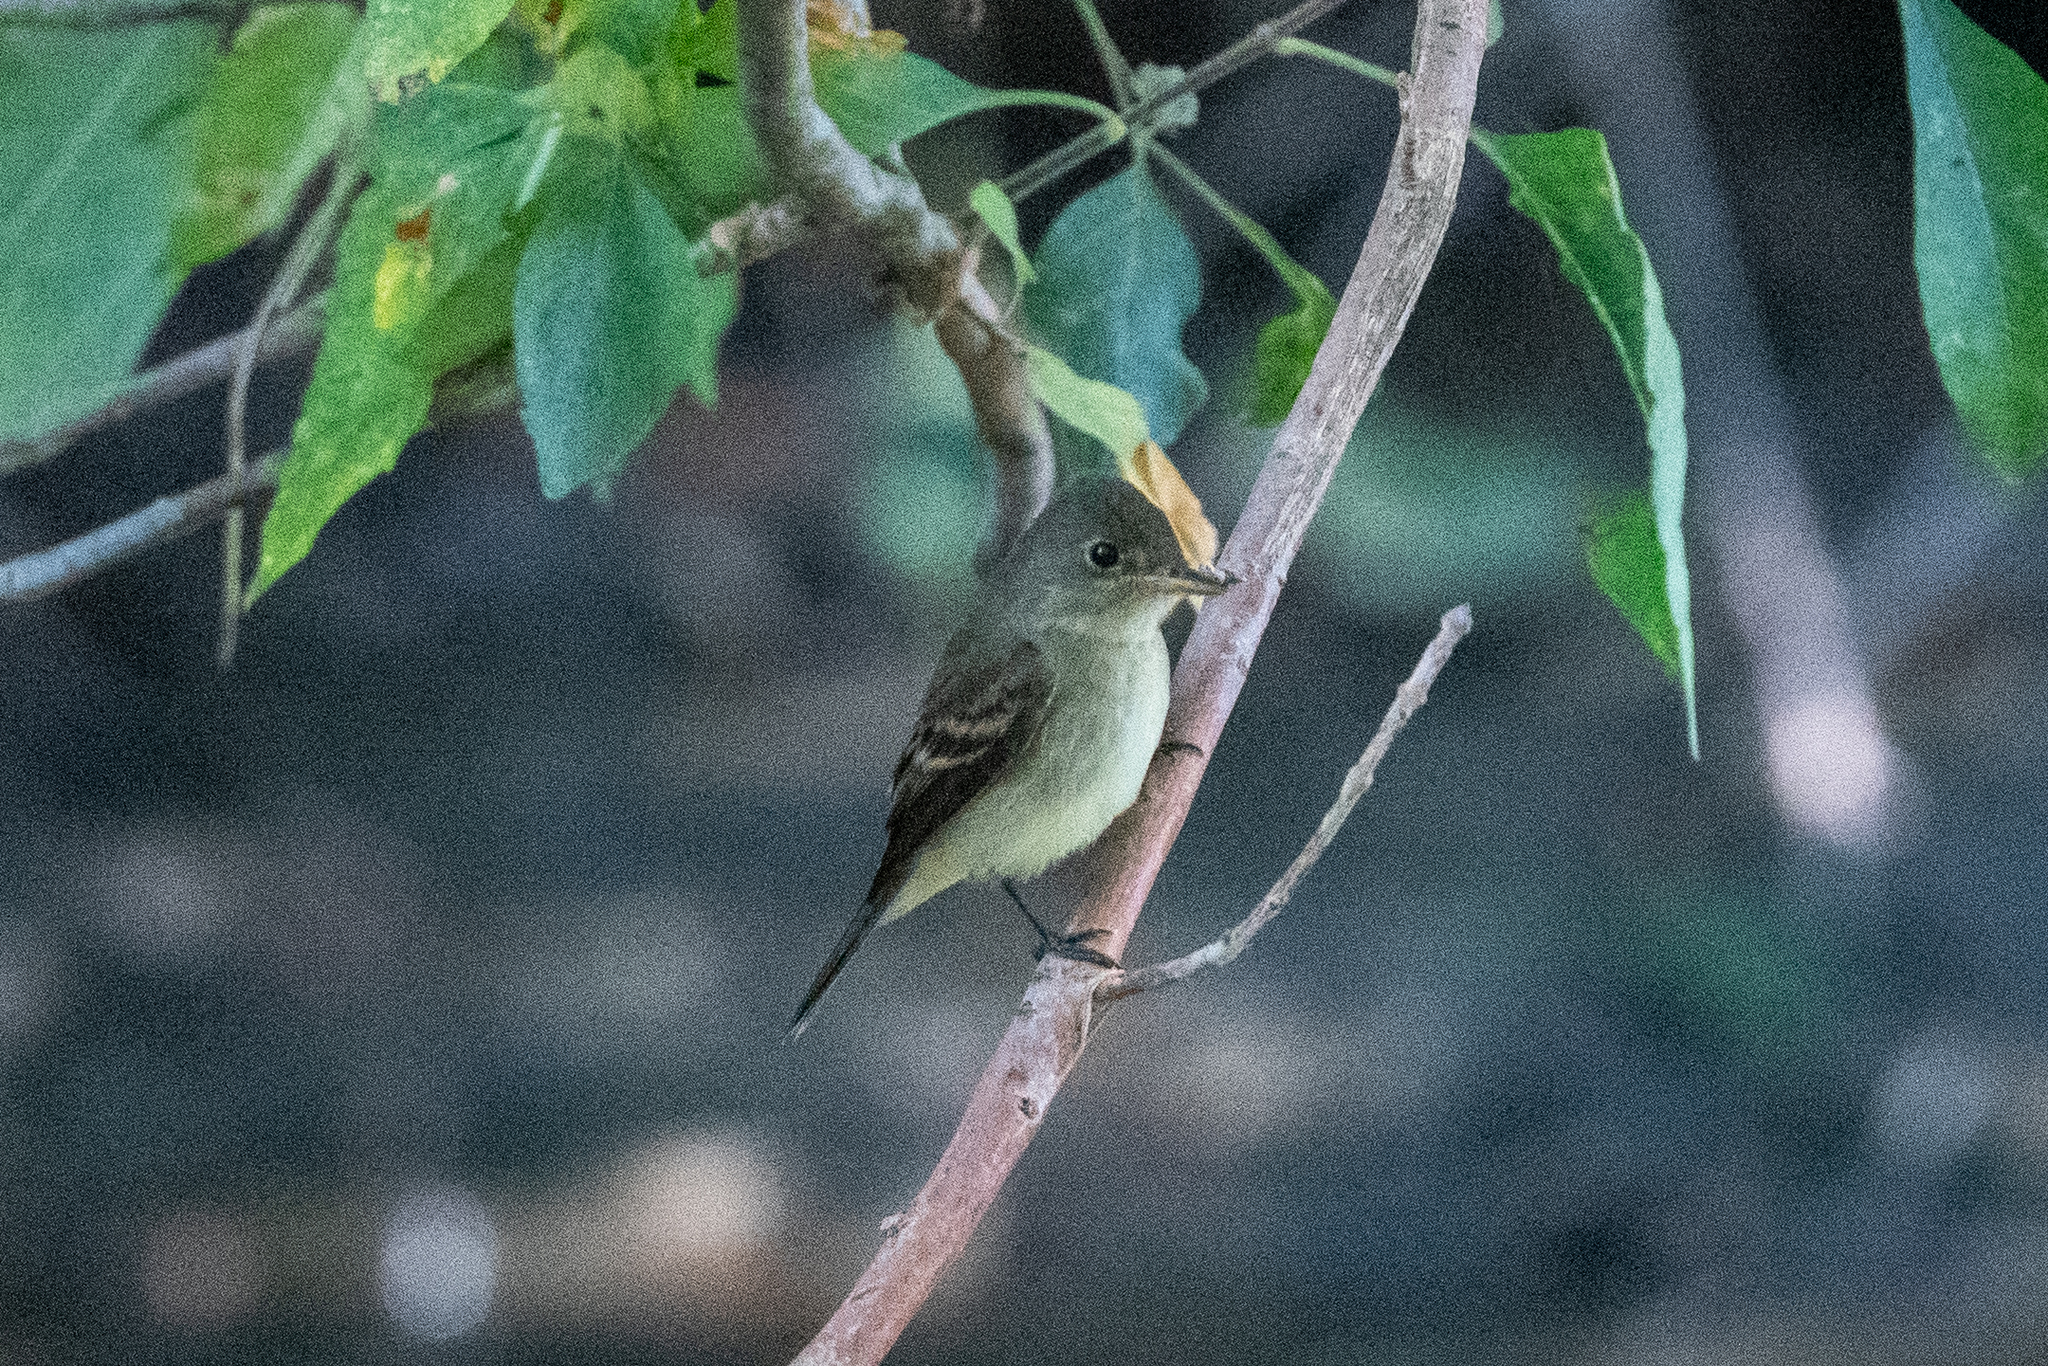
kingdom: Animalia
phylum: Chordata
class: Aves
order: Passeriformes
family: Tyrannidae
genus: Empidonax
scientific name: Empidonax traillii
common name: Willow flycatcher
